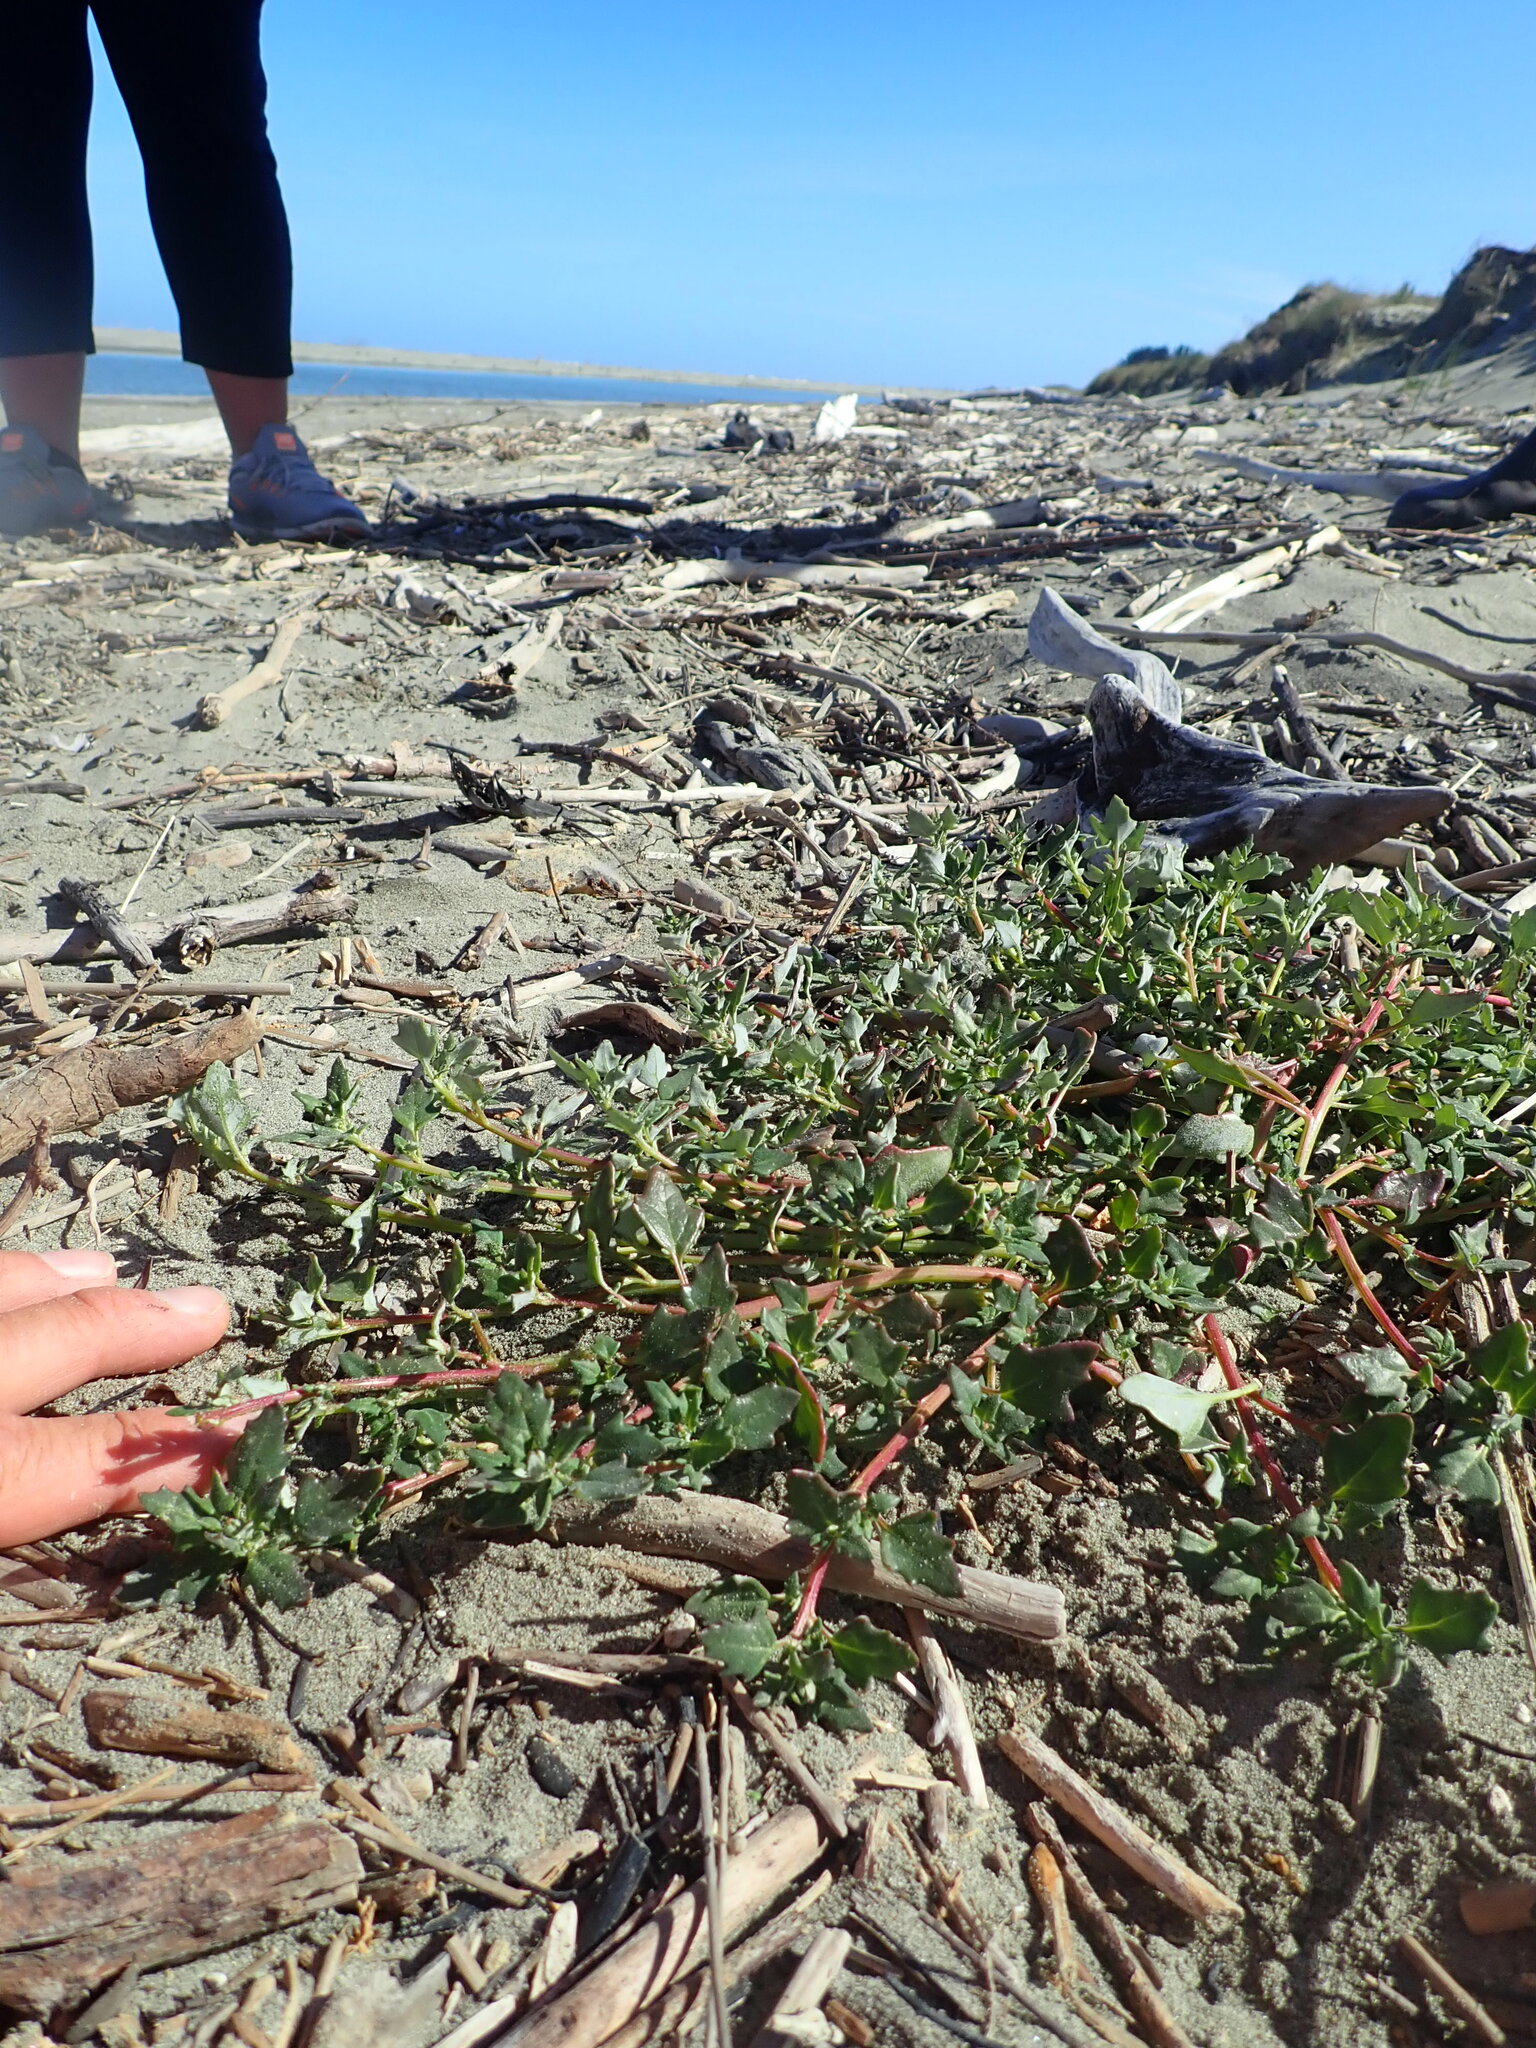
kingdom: Plantae
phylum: Tracheophyta
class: Magnoliopsida
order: Caryophyllales
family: Amaranthaceae
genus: Oxybasis
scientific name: Oxybasis ambigua
